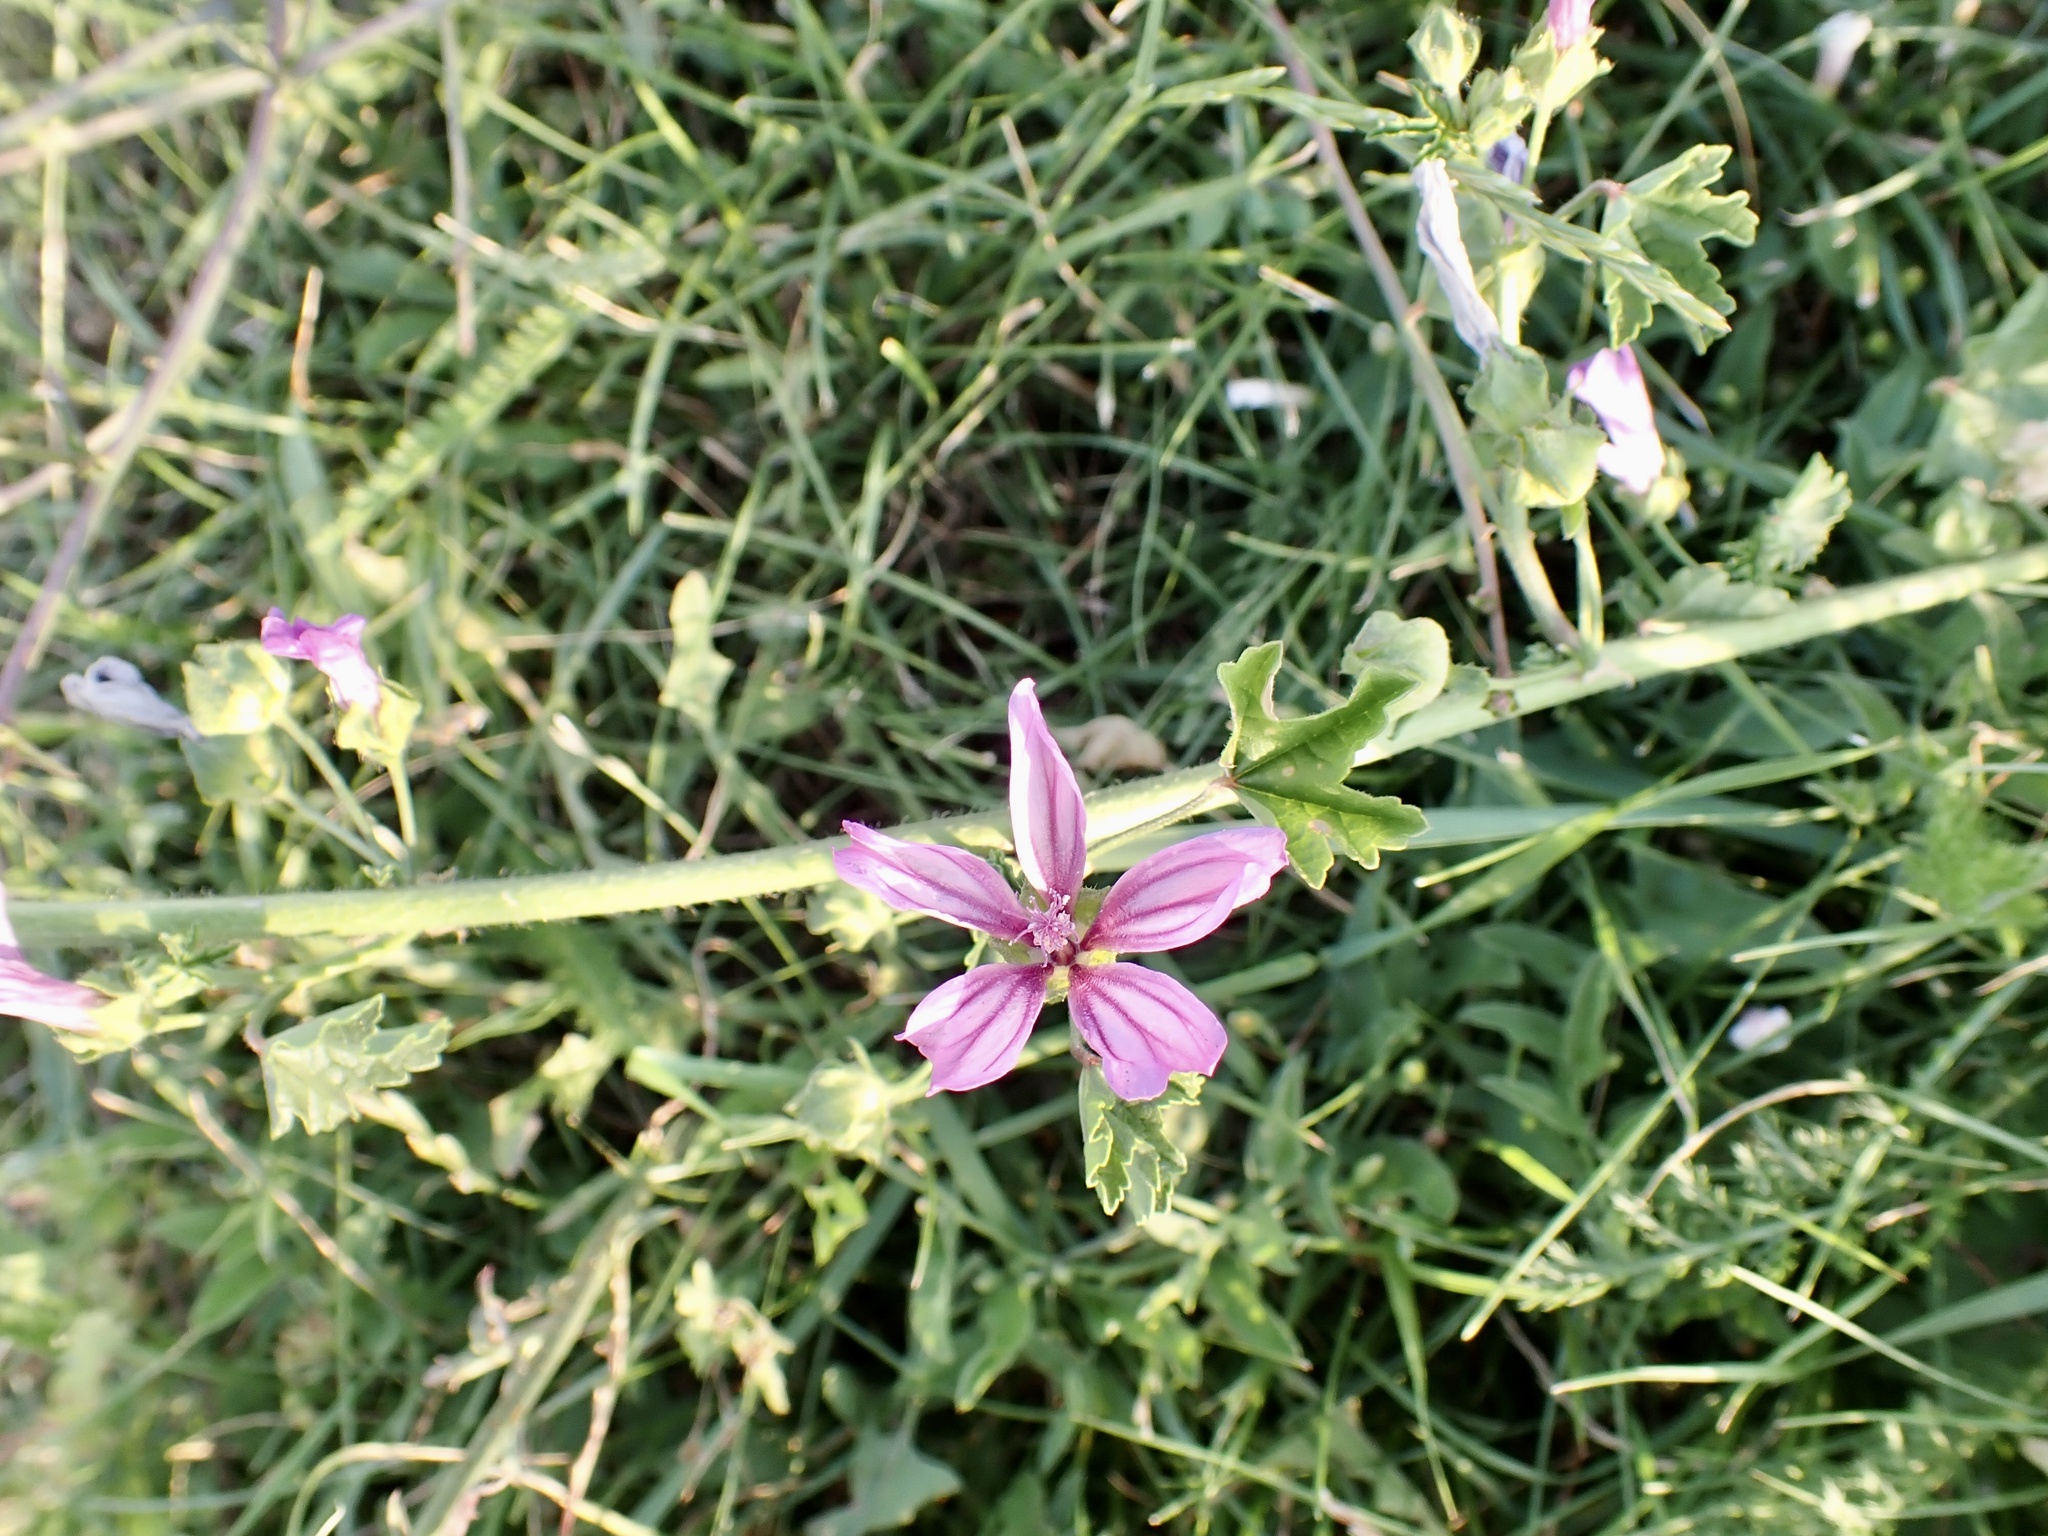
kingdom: Plantae
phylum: Tracheophyta
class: Magnoliopsida
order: Malvales
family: Malvaceae
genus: Malva
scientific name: Malva sylvestris
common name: Common mallow
